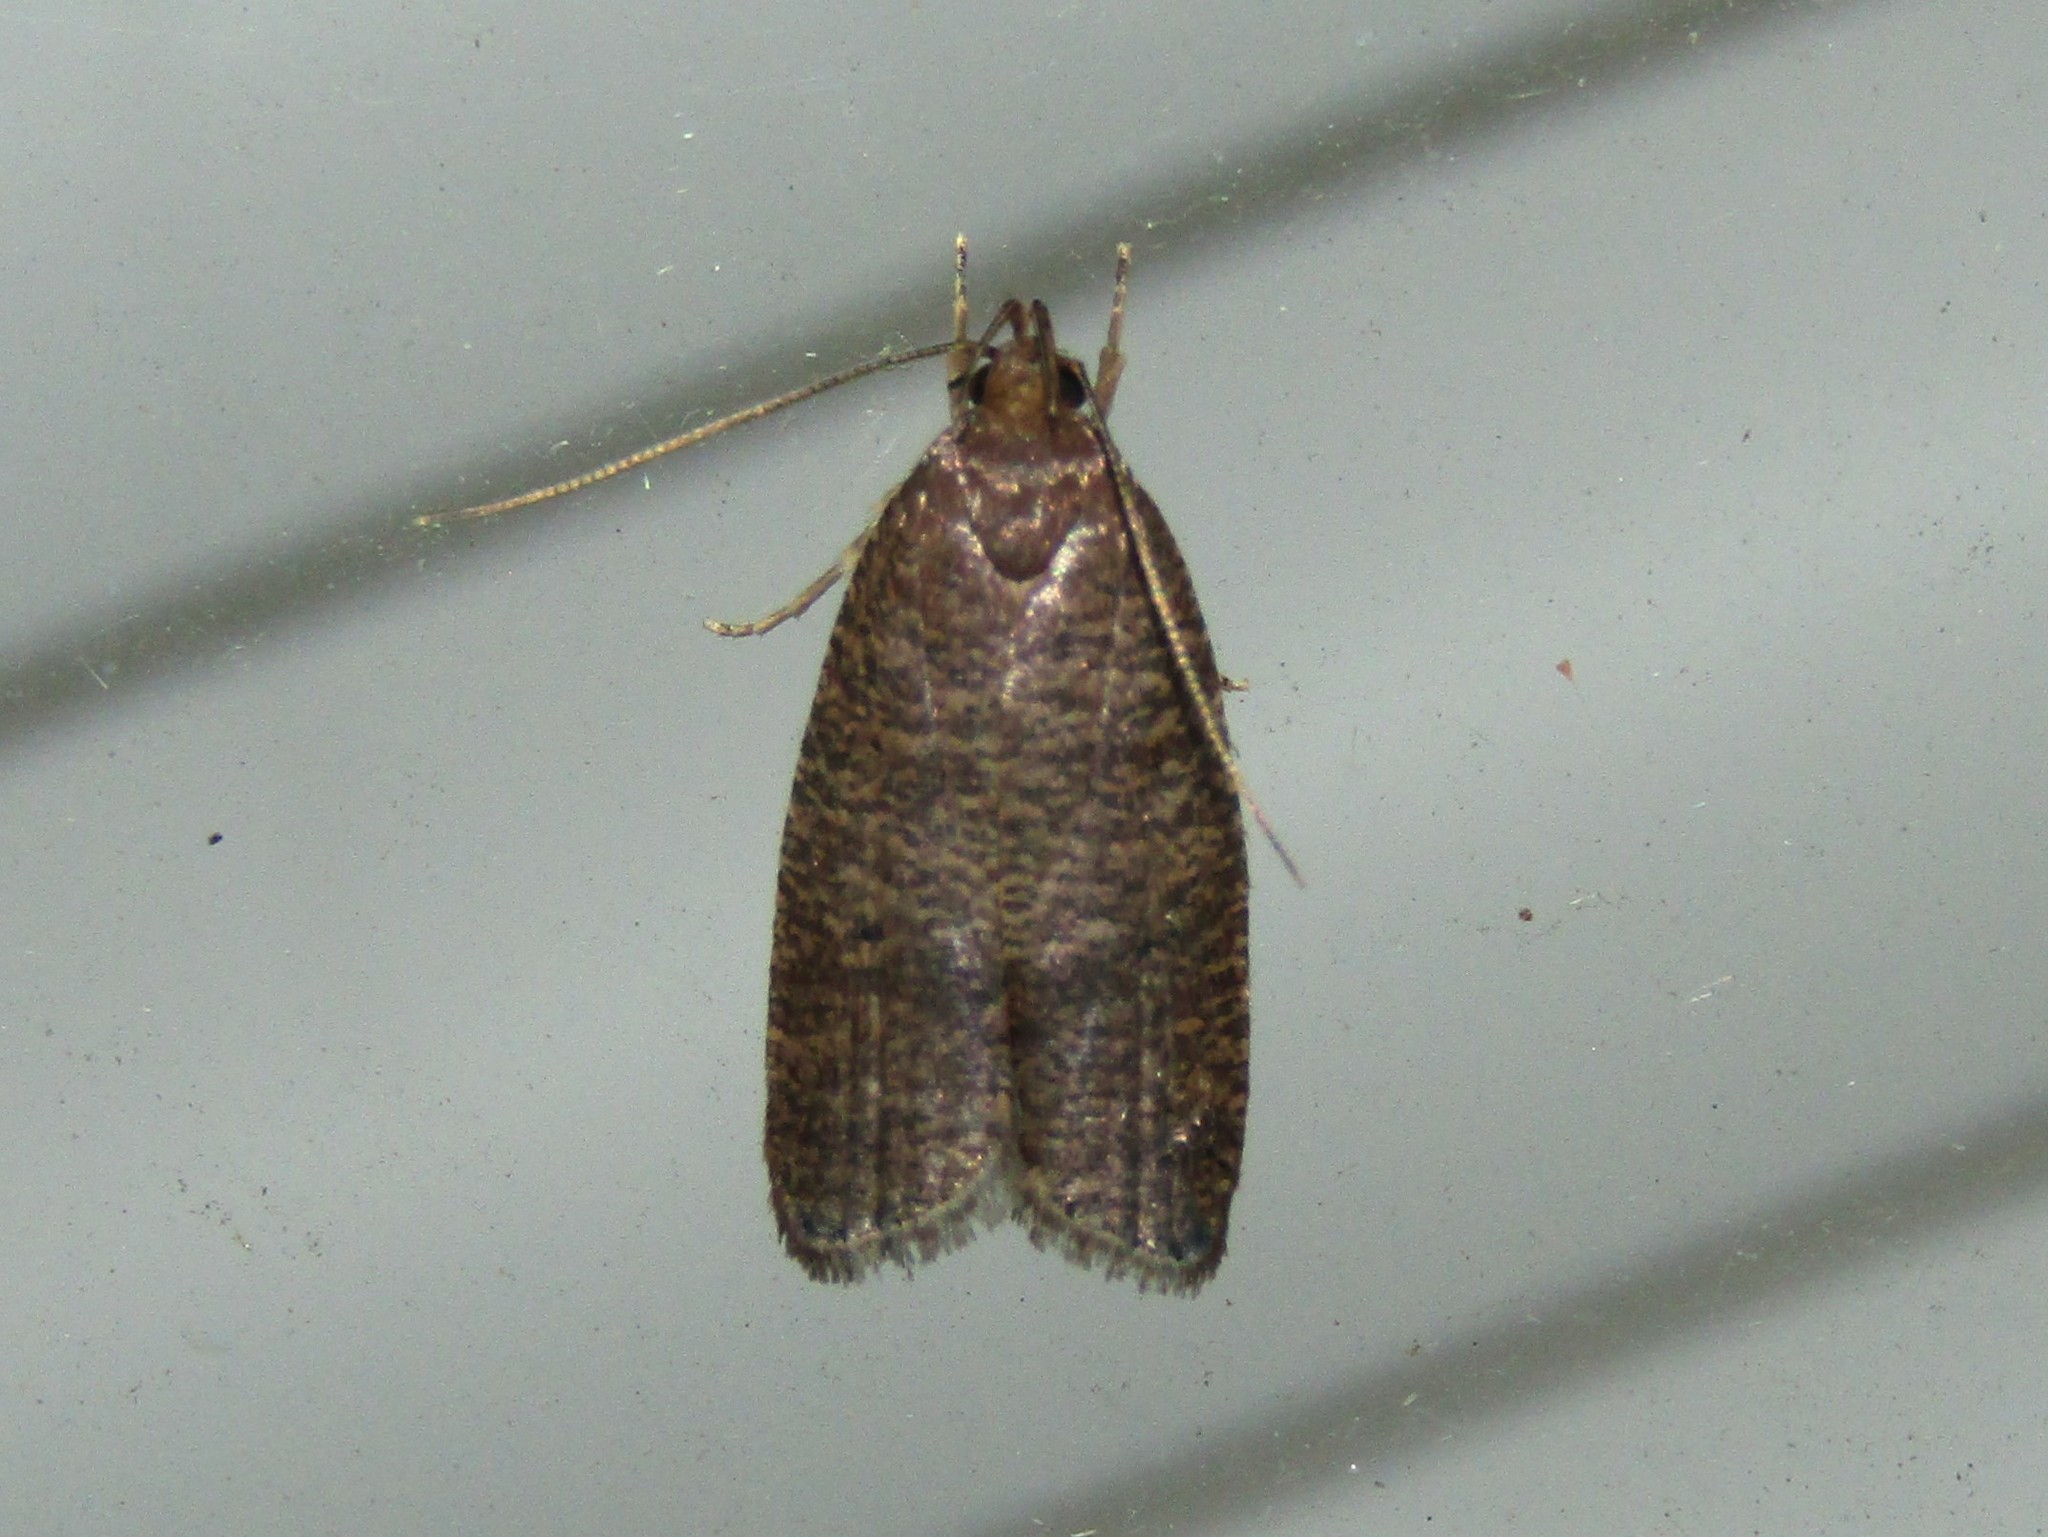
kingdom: Animalia
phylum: Arthropoda
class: Insecta
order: Lepidoptera
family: Depressariidae
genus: Psilocorsis
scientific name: Psilocorsis reflexella
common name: Dotted leaftier moth
